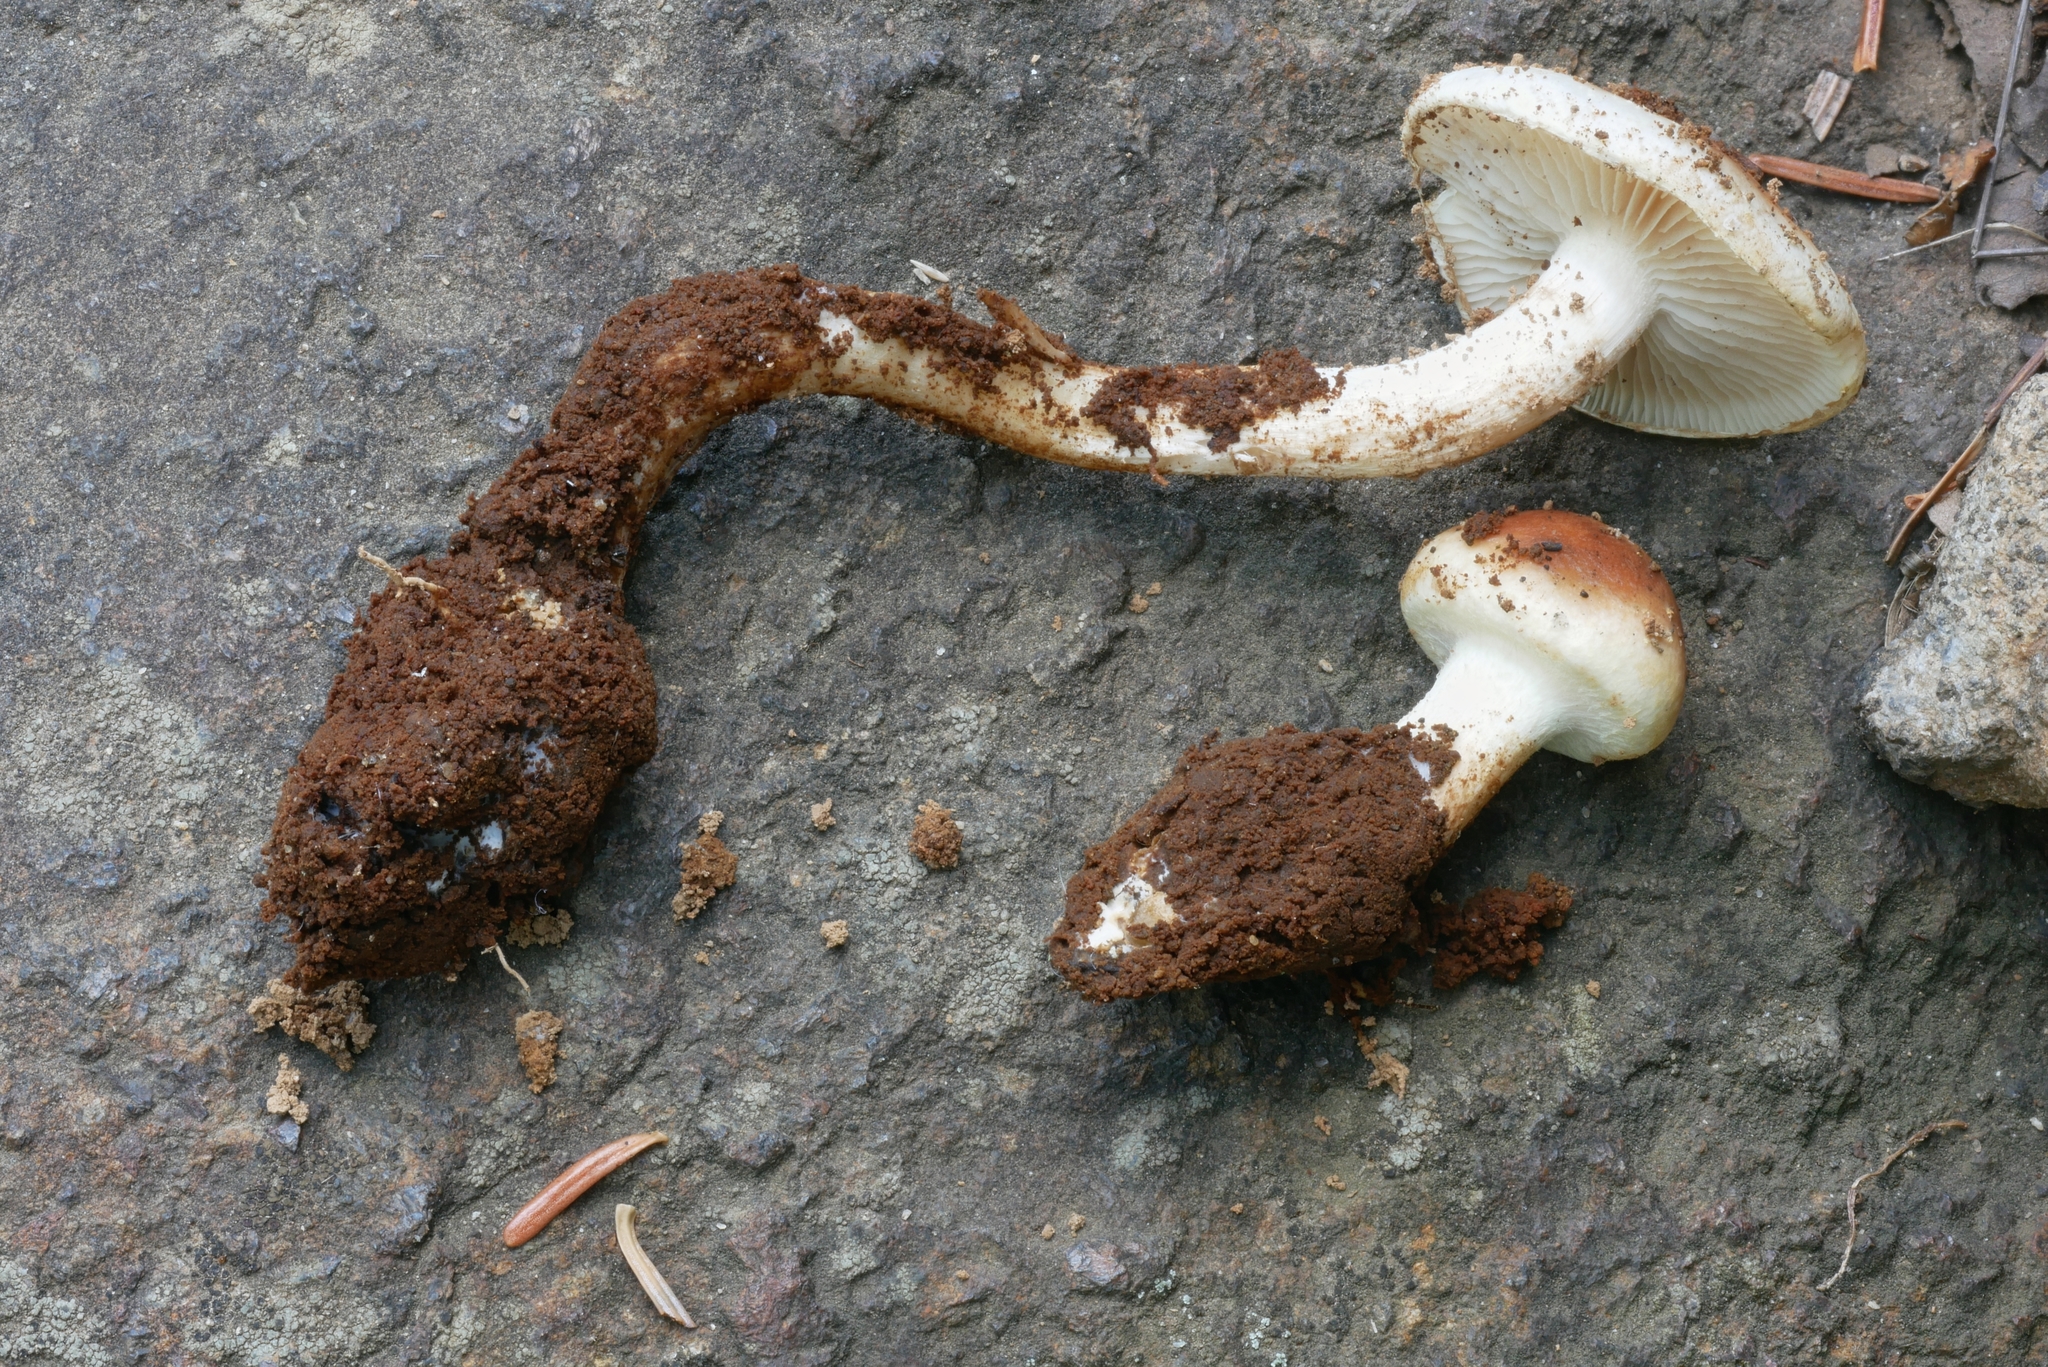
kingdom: Fungi
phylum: Basidiomycota
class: Agaricomycetes
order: Agaricales
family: Strophariaceae
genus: Hypholoma
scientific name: Hypholoma radicosum
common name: Rooting brownie
